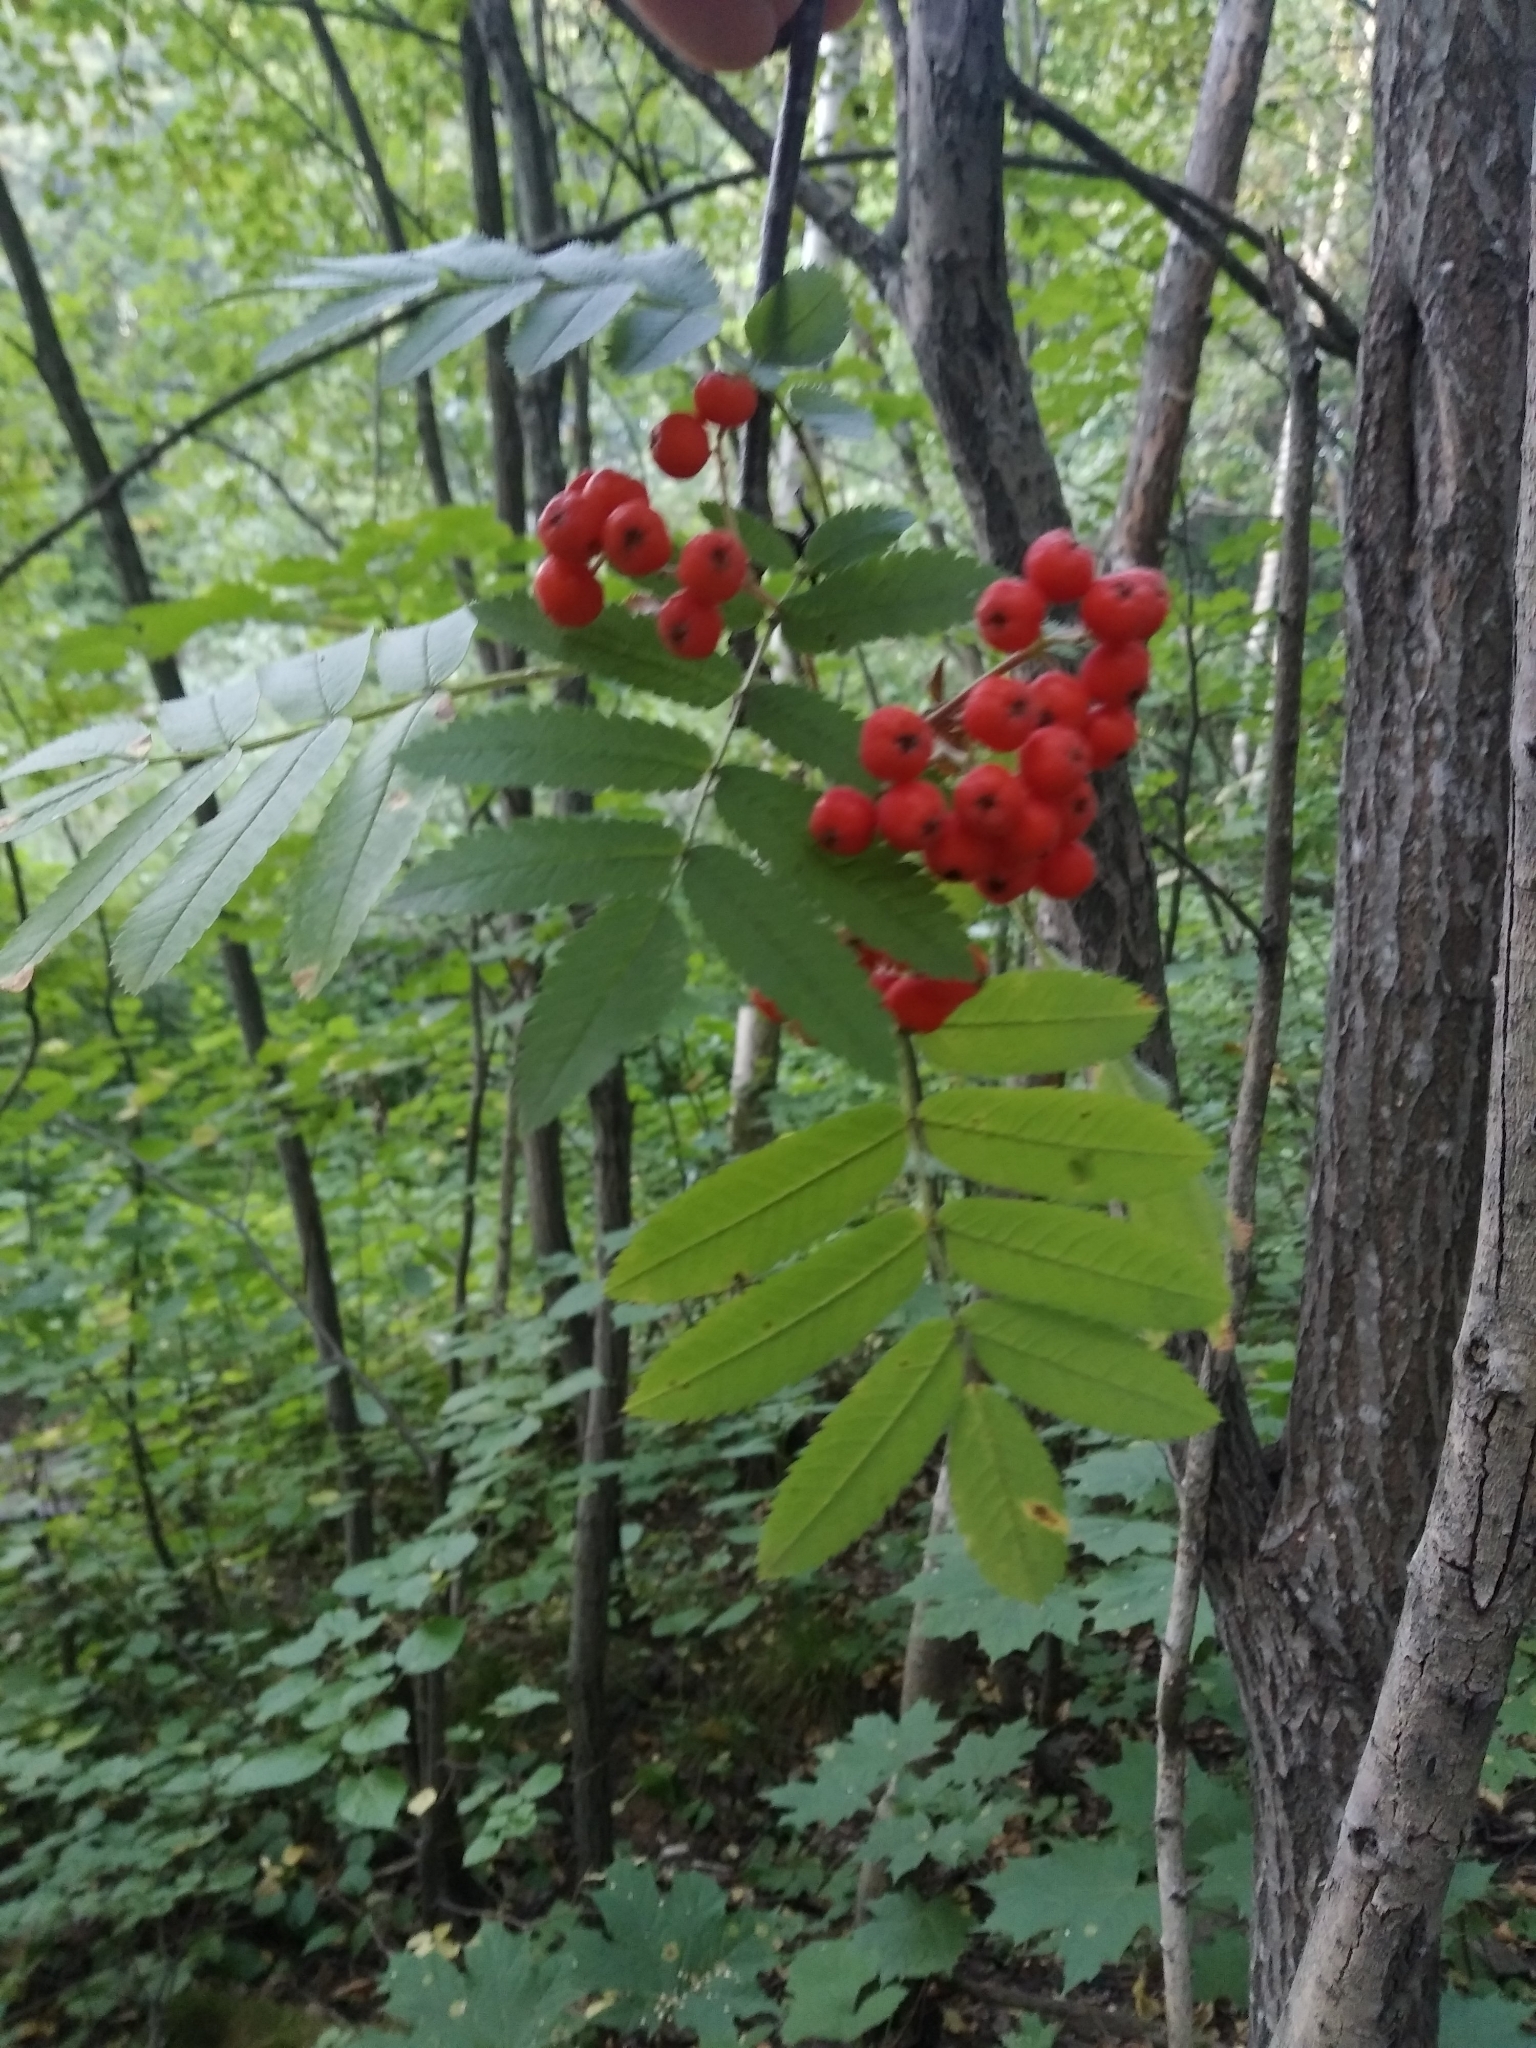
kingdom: Plantae
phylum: Tracheophyta
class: Magnoliopsida
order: Rosales
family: Rosaceae
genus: Sorbus
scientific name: Sorbus aucuparia
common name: Rowan
